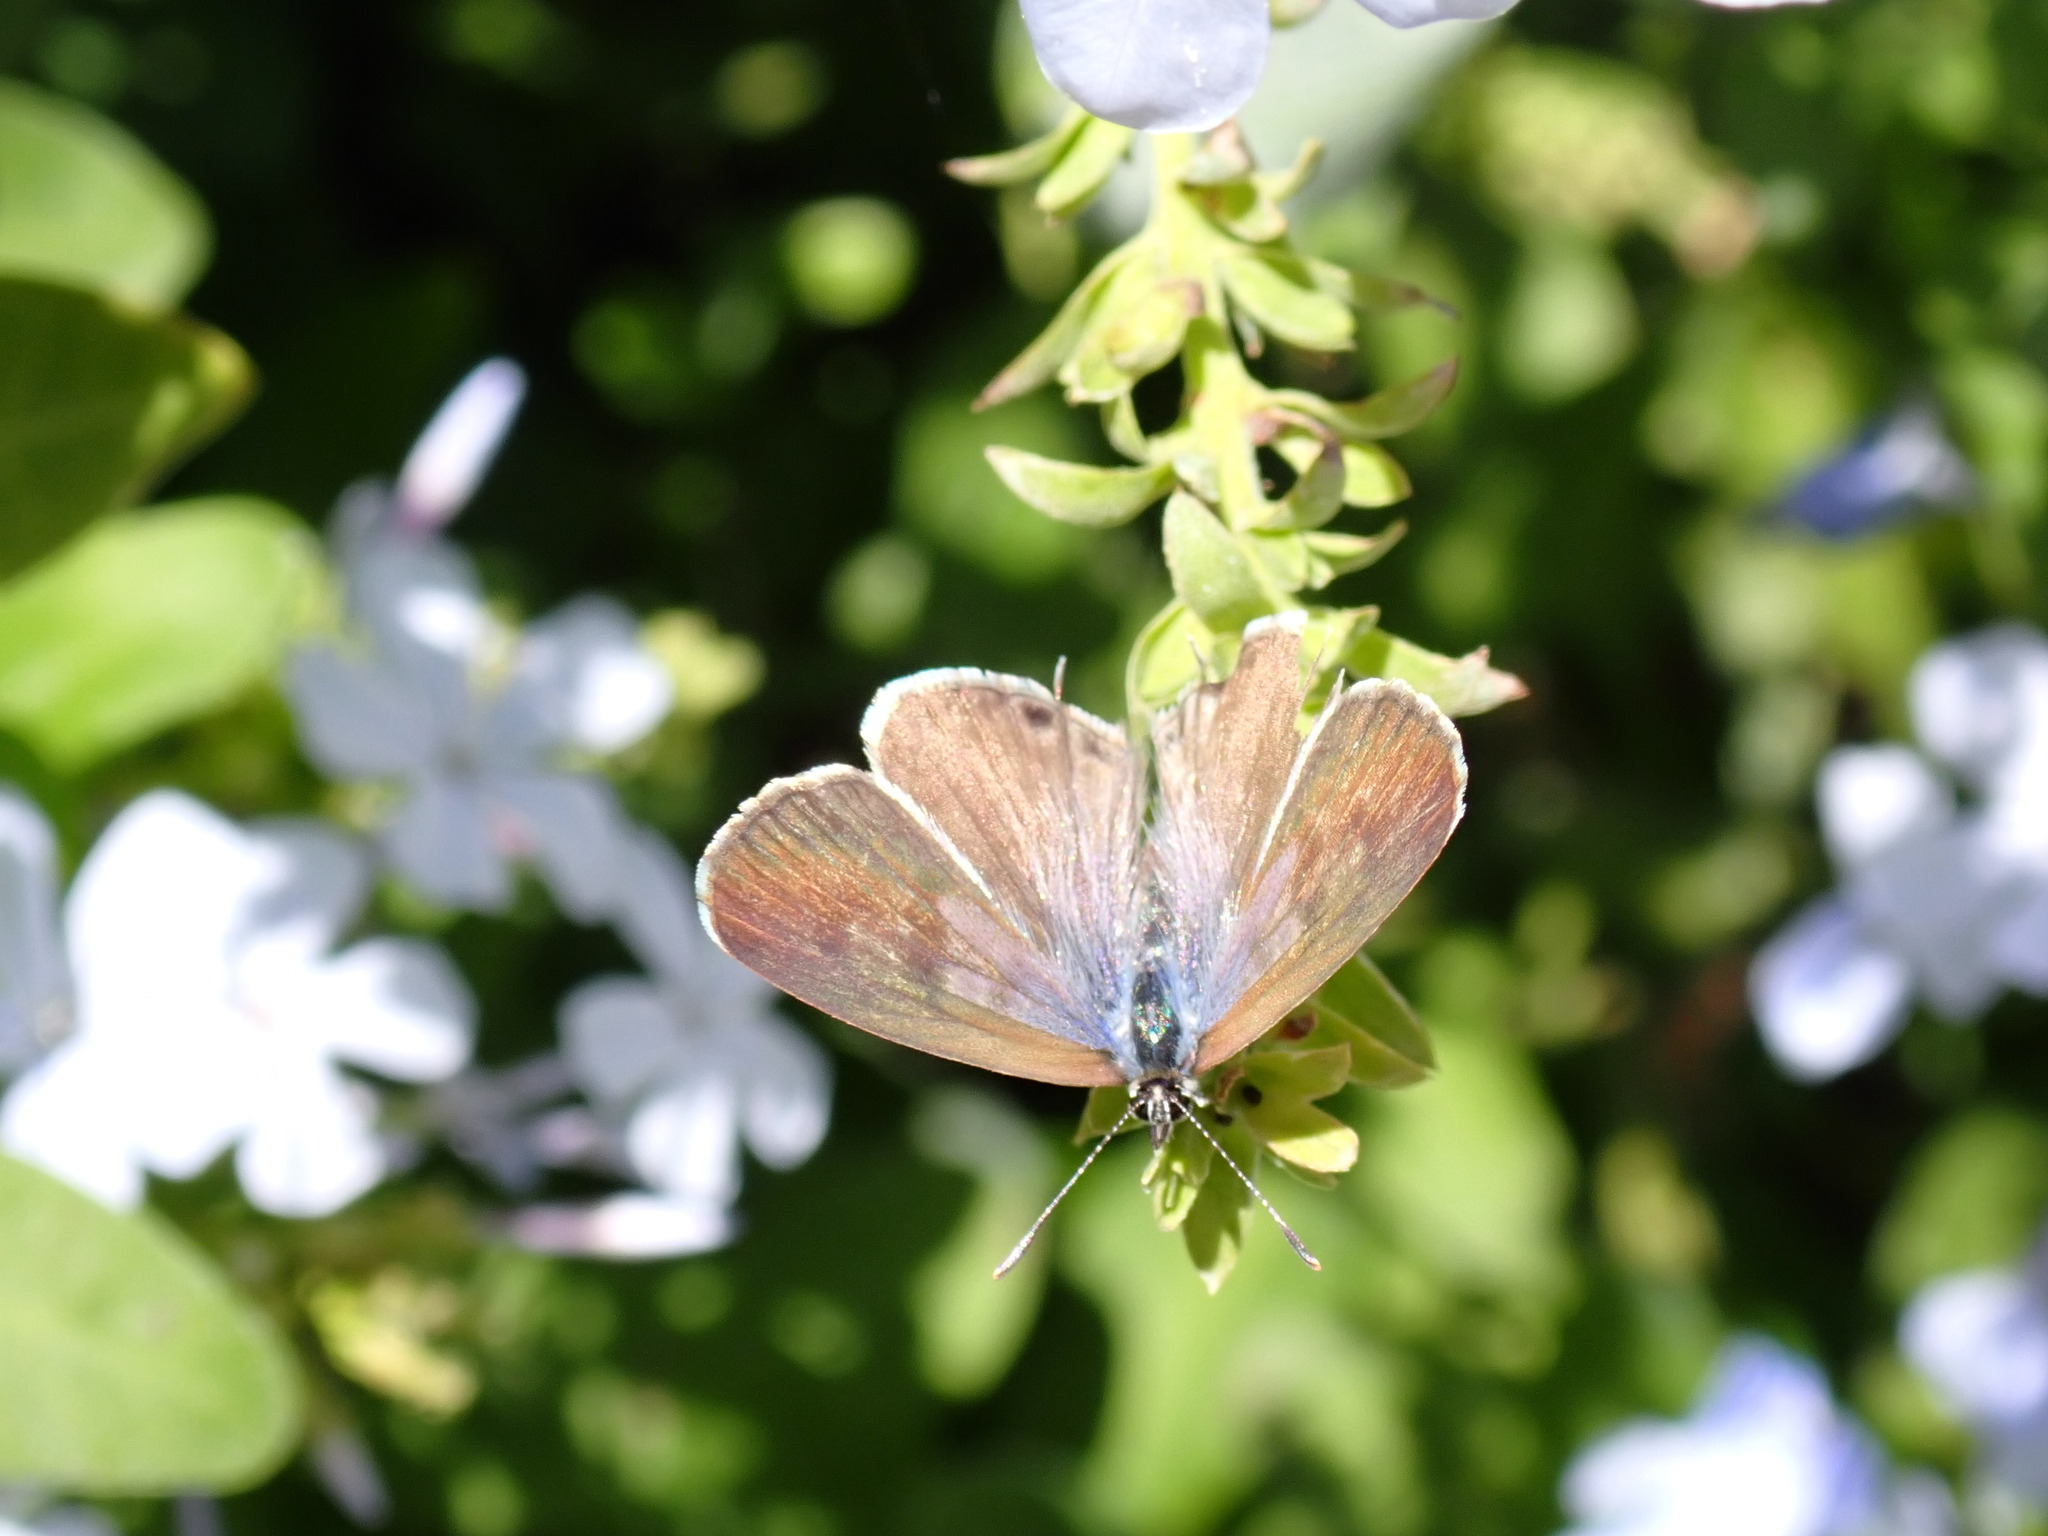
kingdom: Animalia
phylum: Arthropoda
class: Insecta
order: Lepidoptera
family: Lycaenidae
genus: Leptotes
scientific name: Leptotes pirithous
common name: Lang's short-tailed blue
